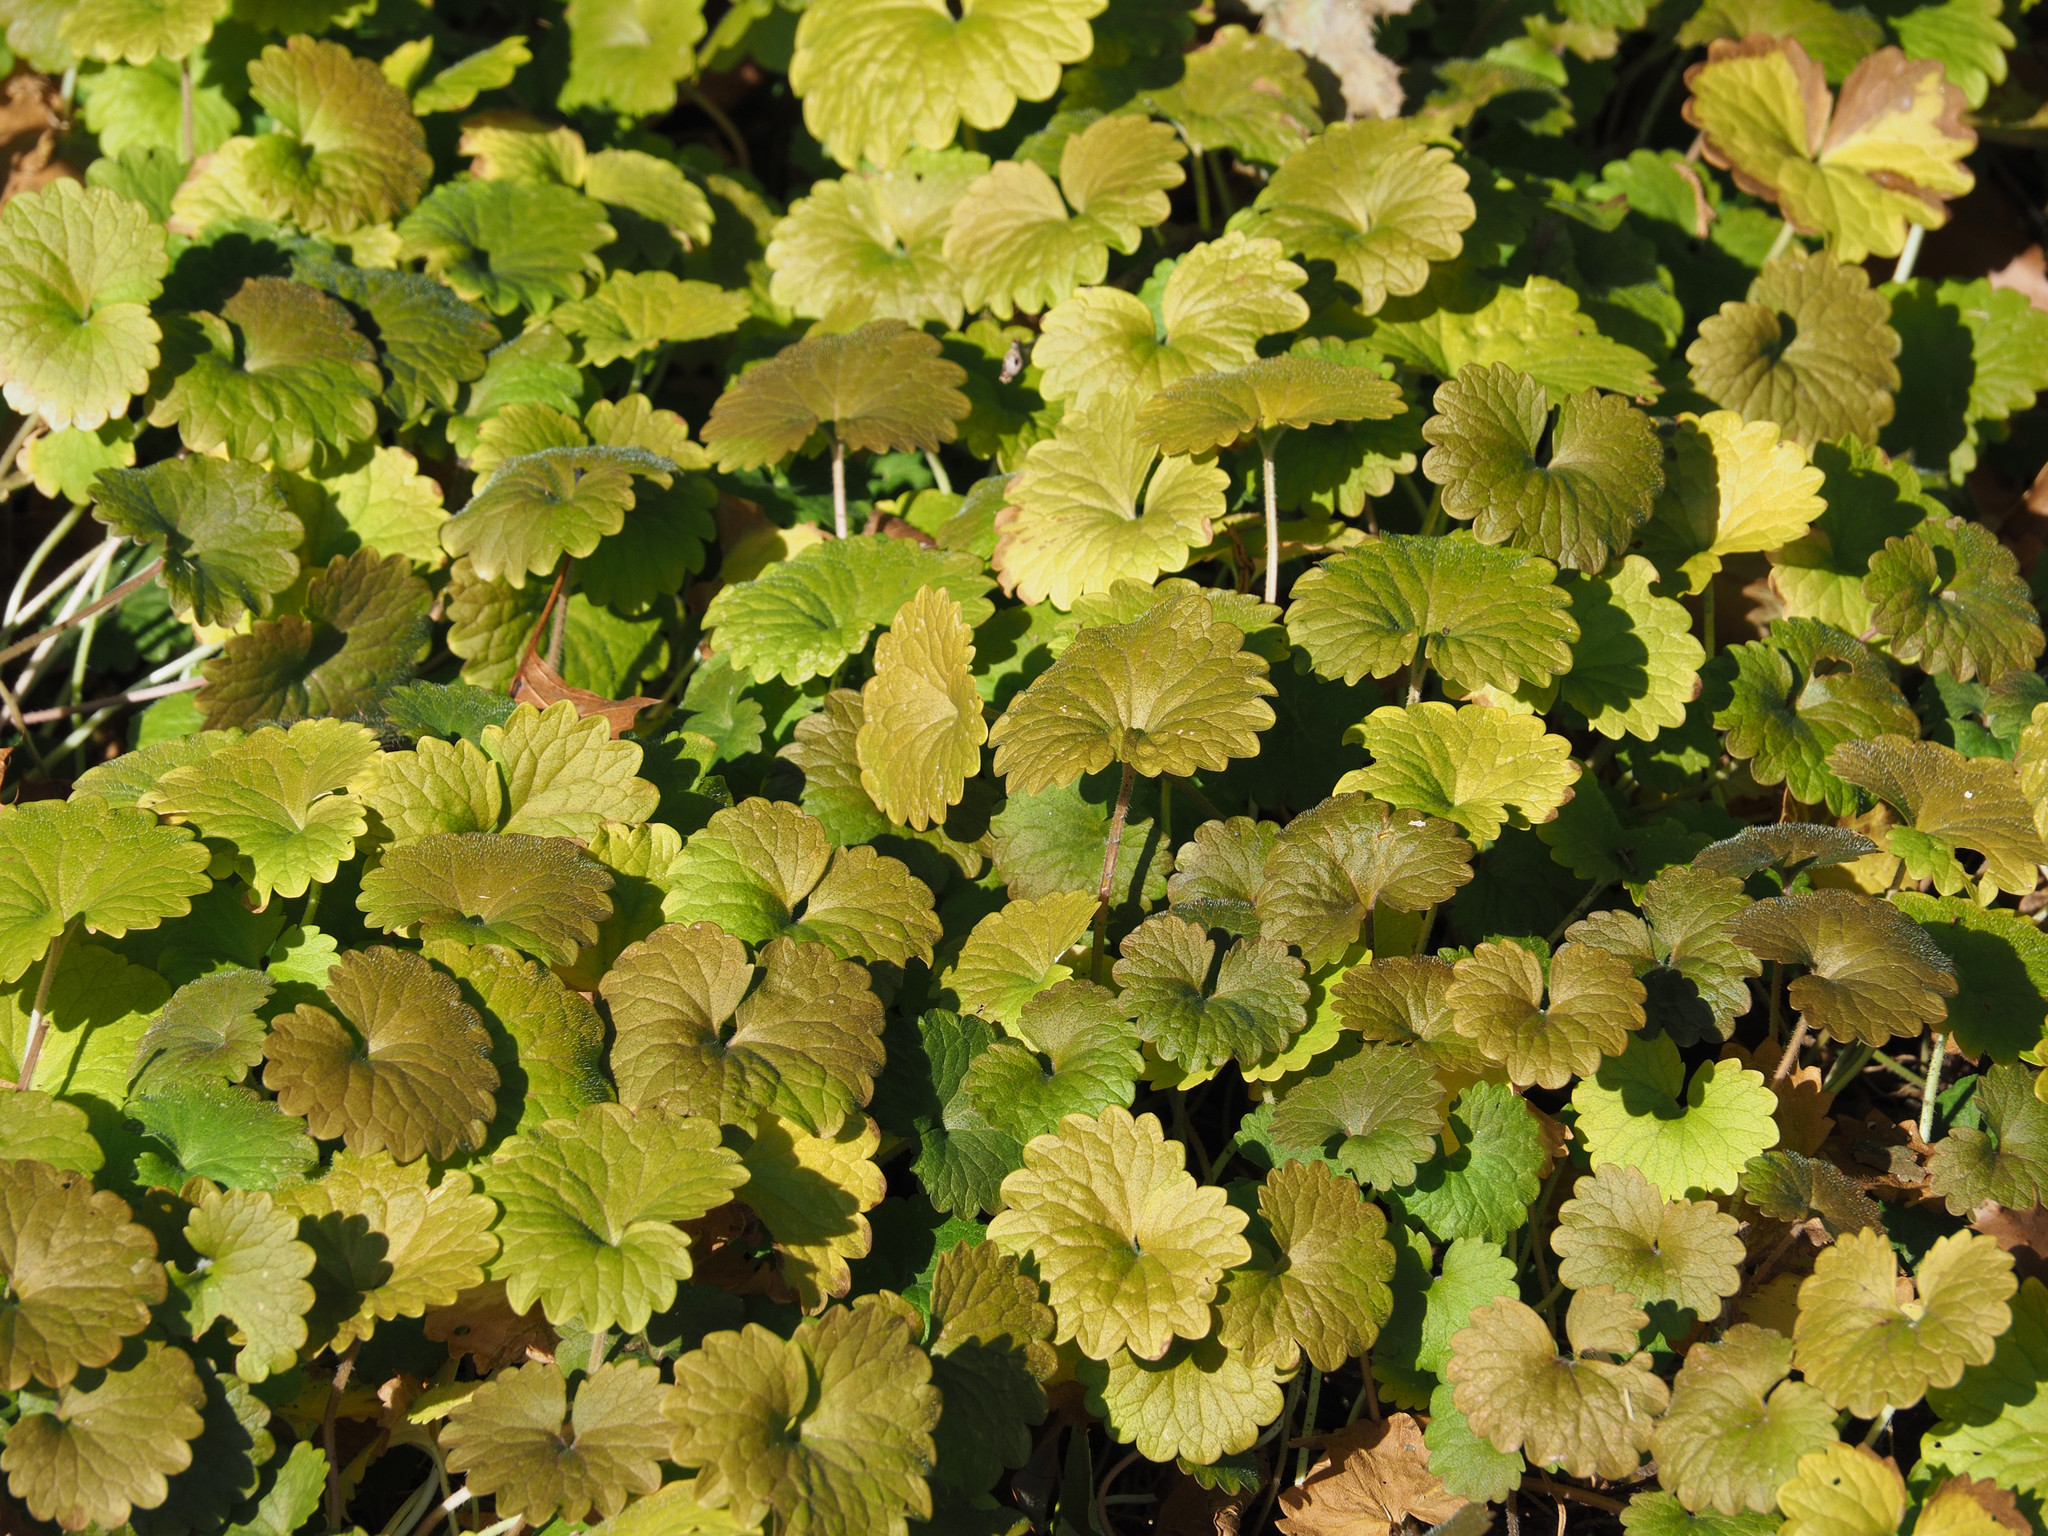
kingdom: Plantae
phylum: Tracheophyta
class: Magnoliopsida
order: Lamiales
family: Lamiaceae
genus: Glechoma
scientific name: Glechoma hederacea
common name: Ground ivy
